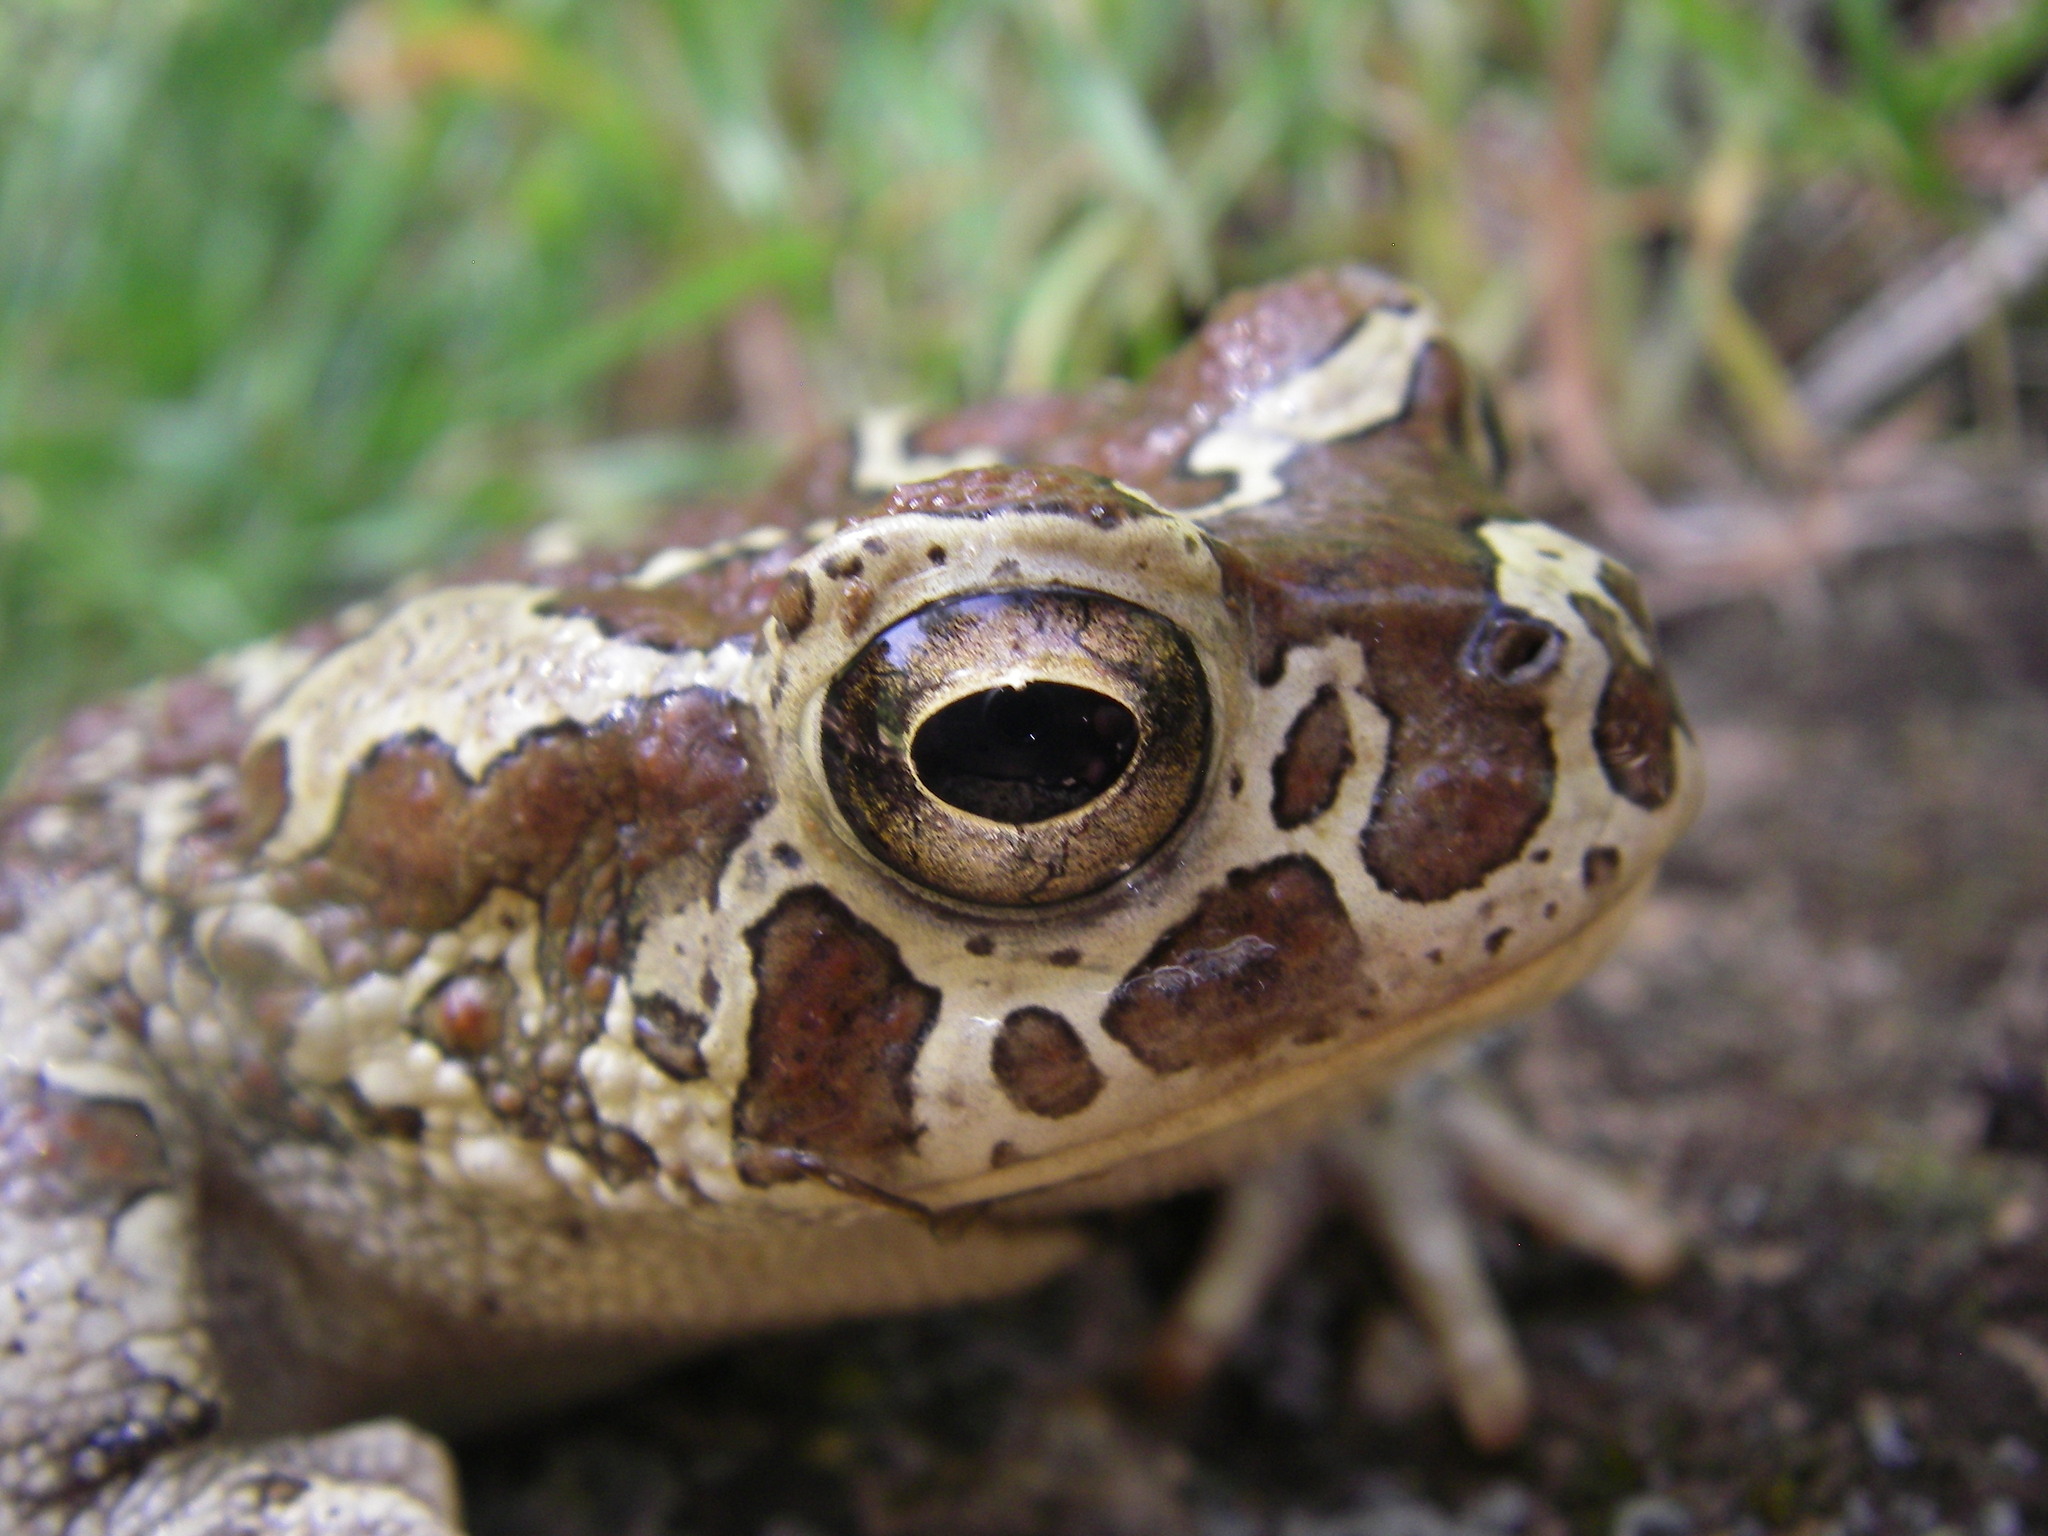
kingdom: Animalia
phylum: Chordata
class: Amphibia
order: Anura
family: Bufonidae
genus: Sclerophrys
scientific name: Sclerophrys mauritanica
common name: Berber toad
